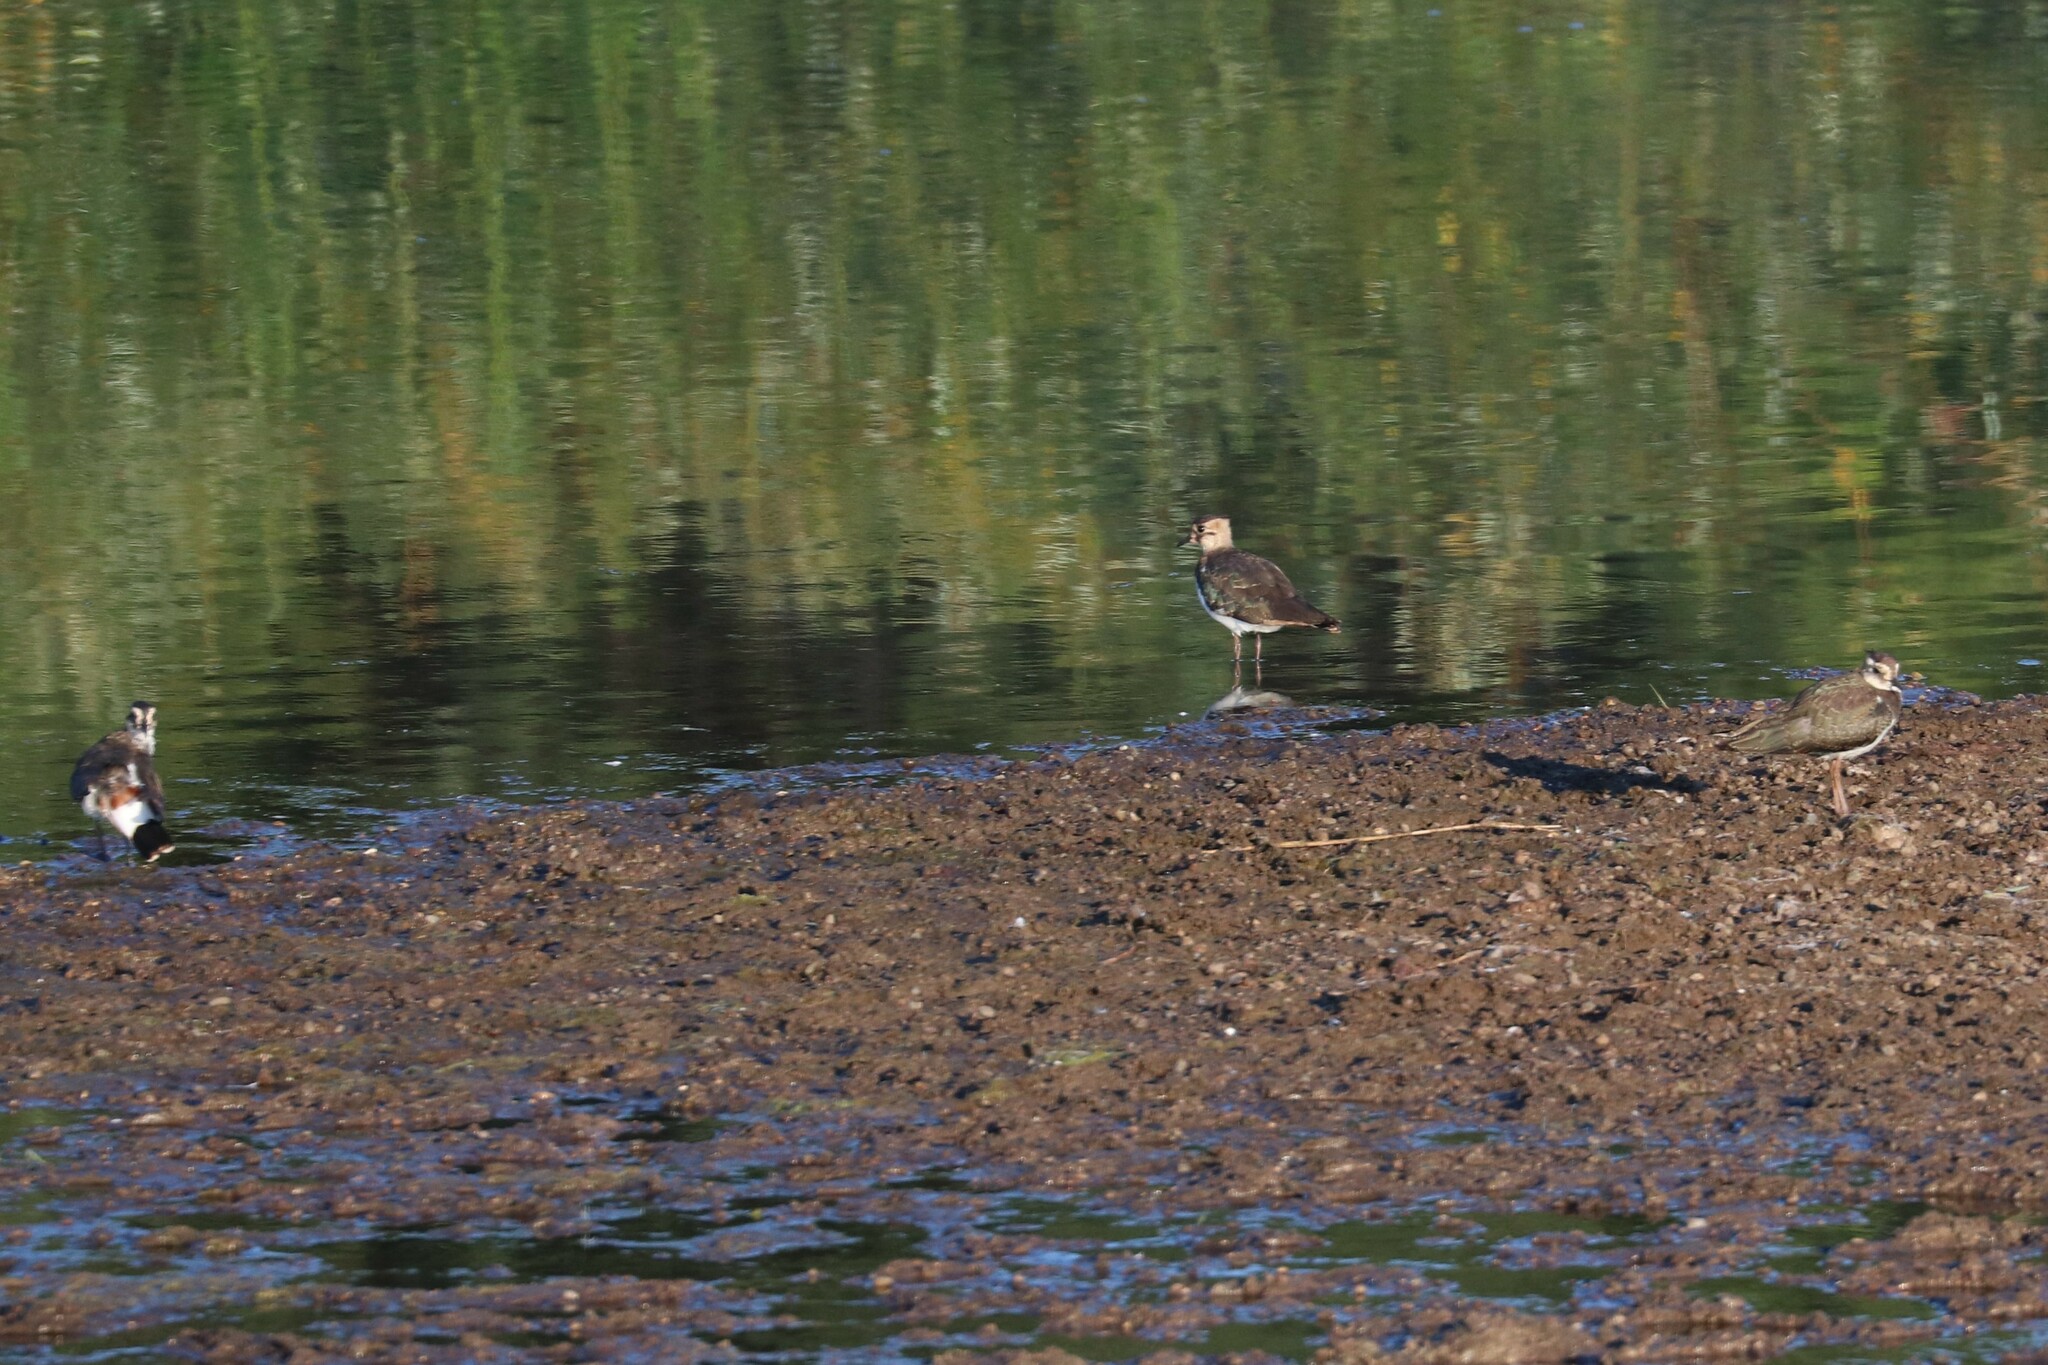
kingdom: Animalia
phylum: Chordata
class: Aves
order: Charadriiformes
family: Charadriidae
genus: Vanellus
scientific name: Vanellus vanellus
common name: Northern lapwing
